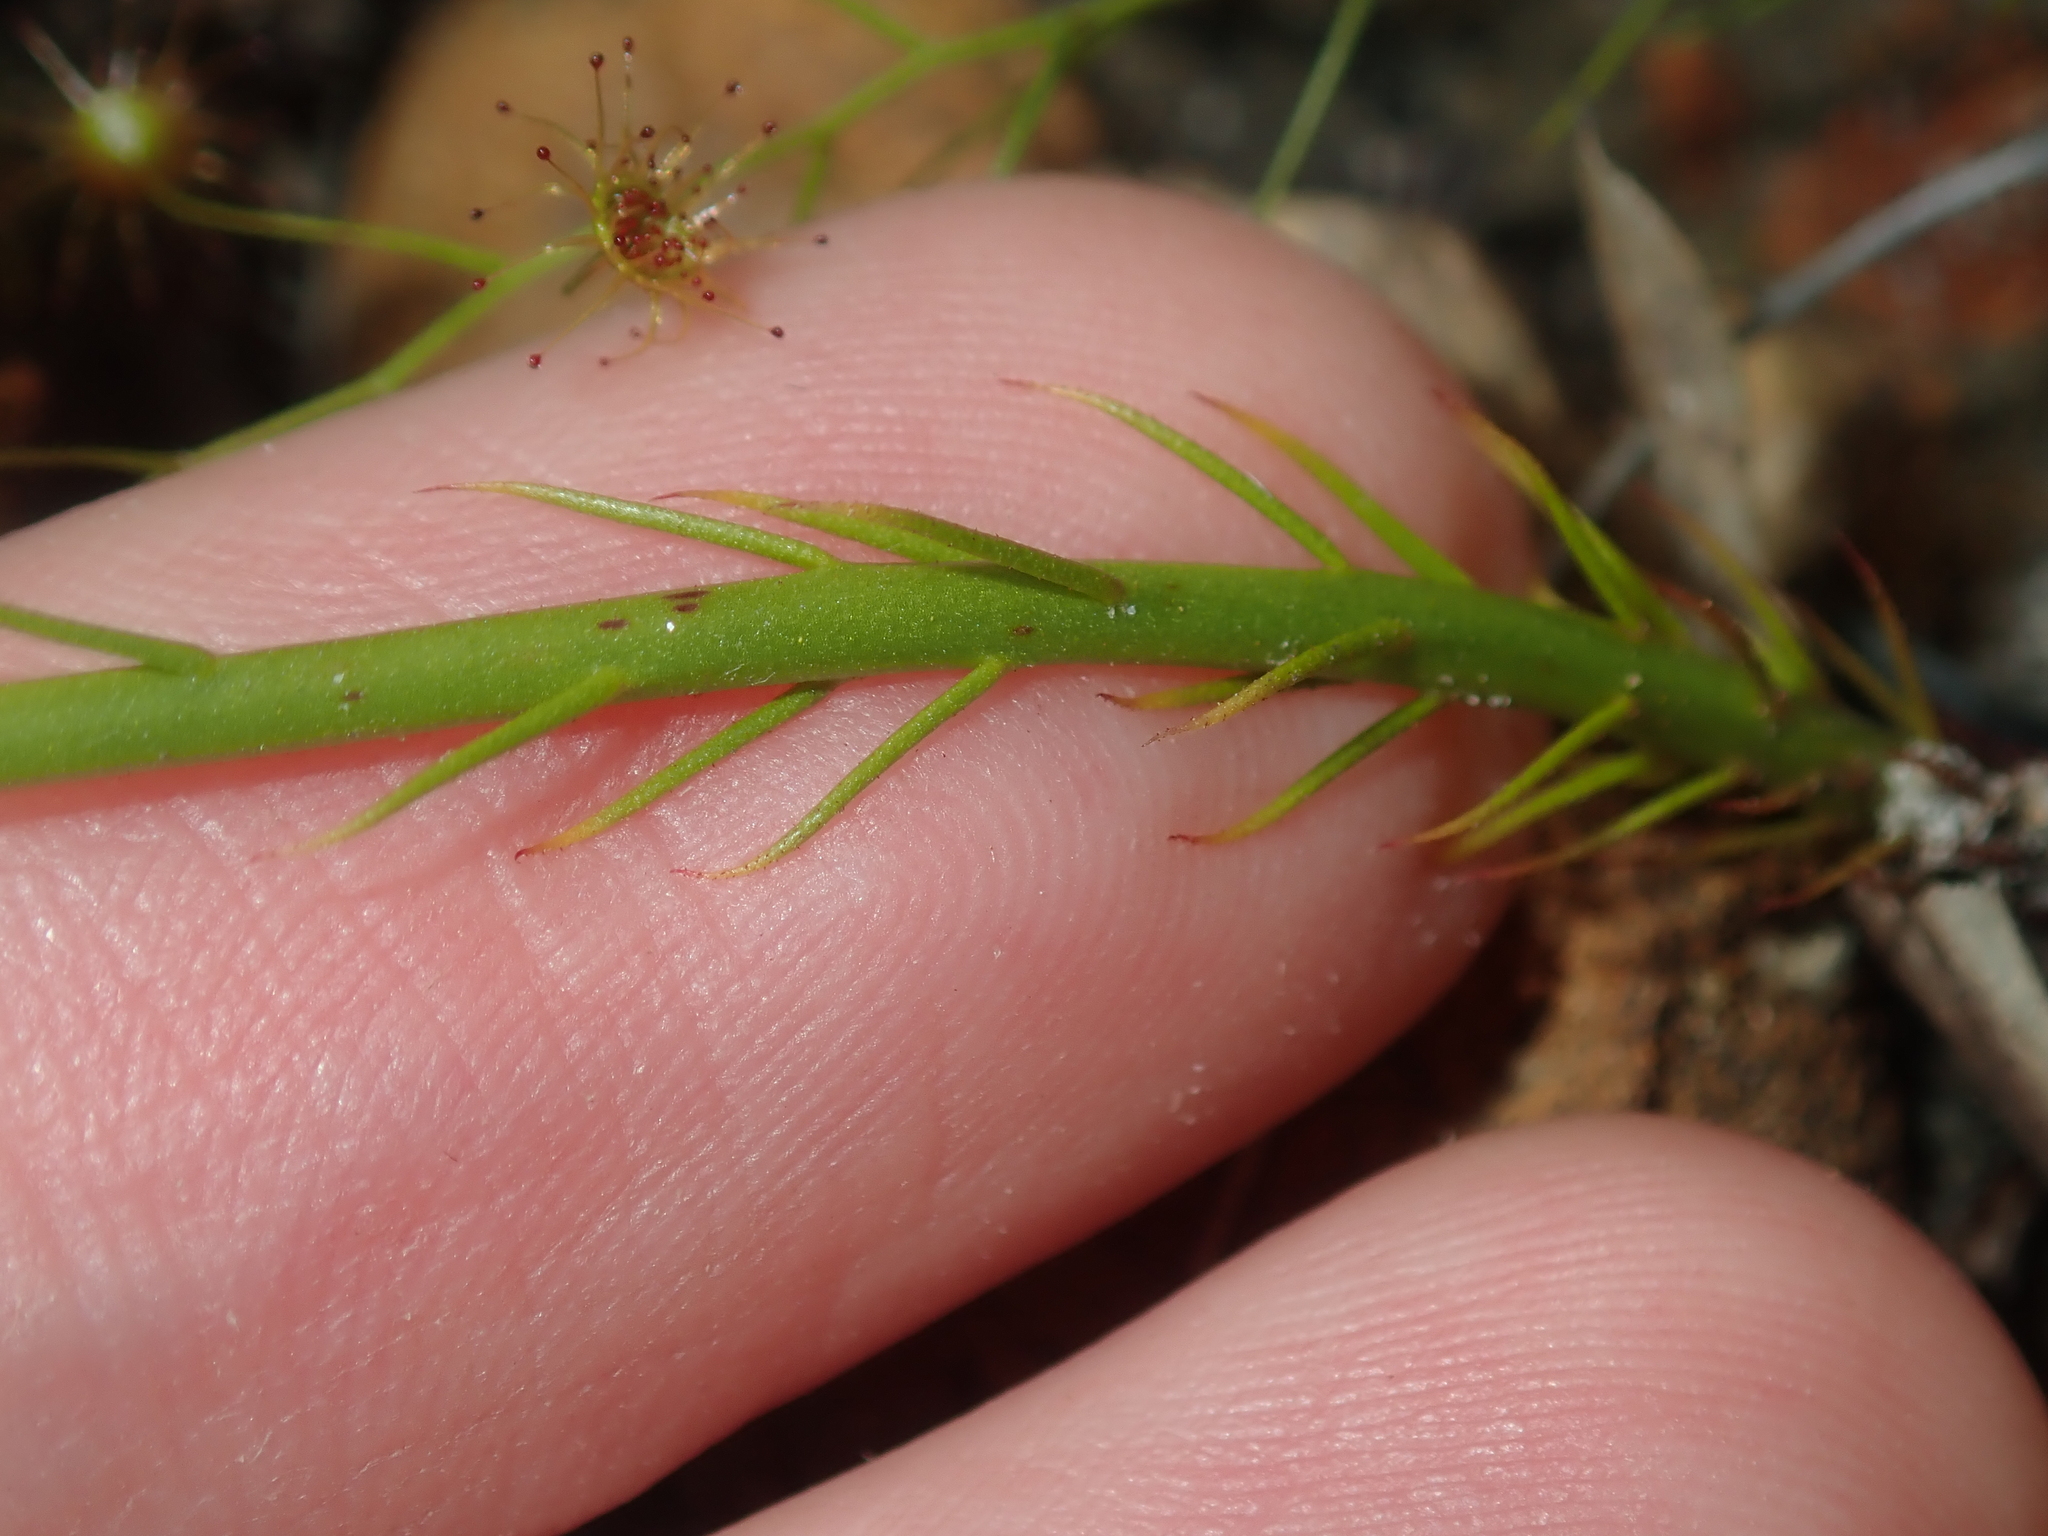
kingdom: Plantae
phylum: Tracheophyta
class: Magnoliopsida
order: Caryophyllales
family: Droseraceae
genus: Drosera
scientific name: Drosera marchantii
